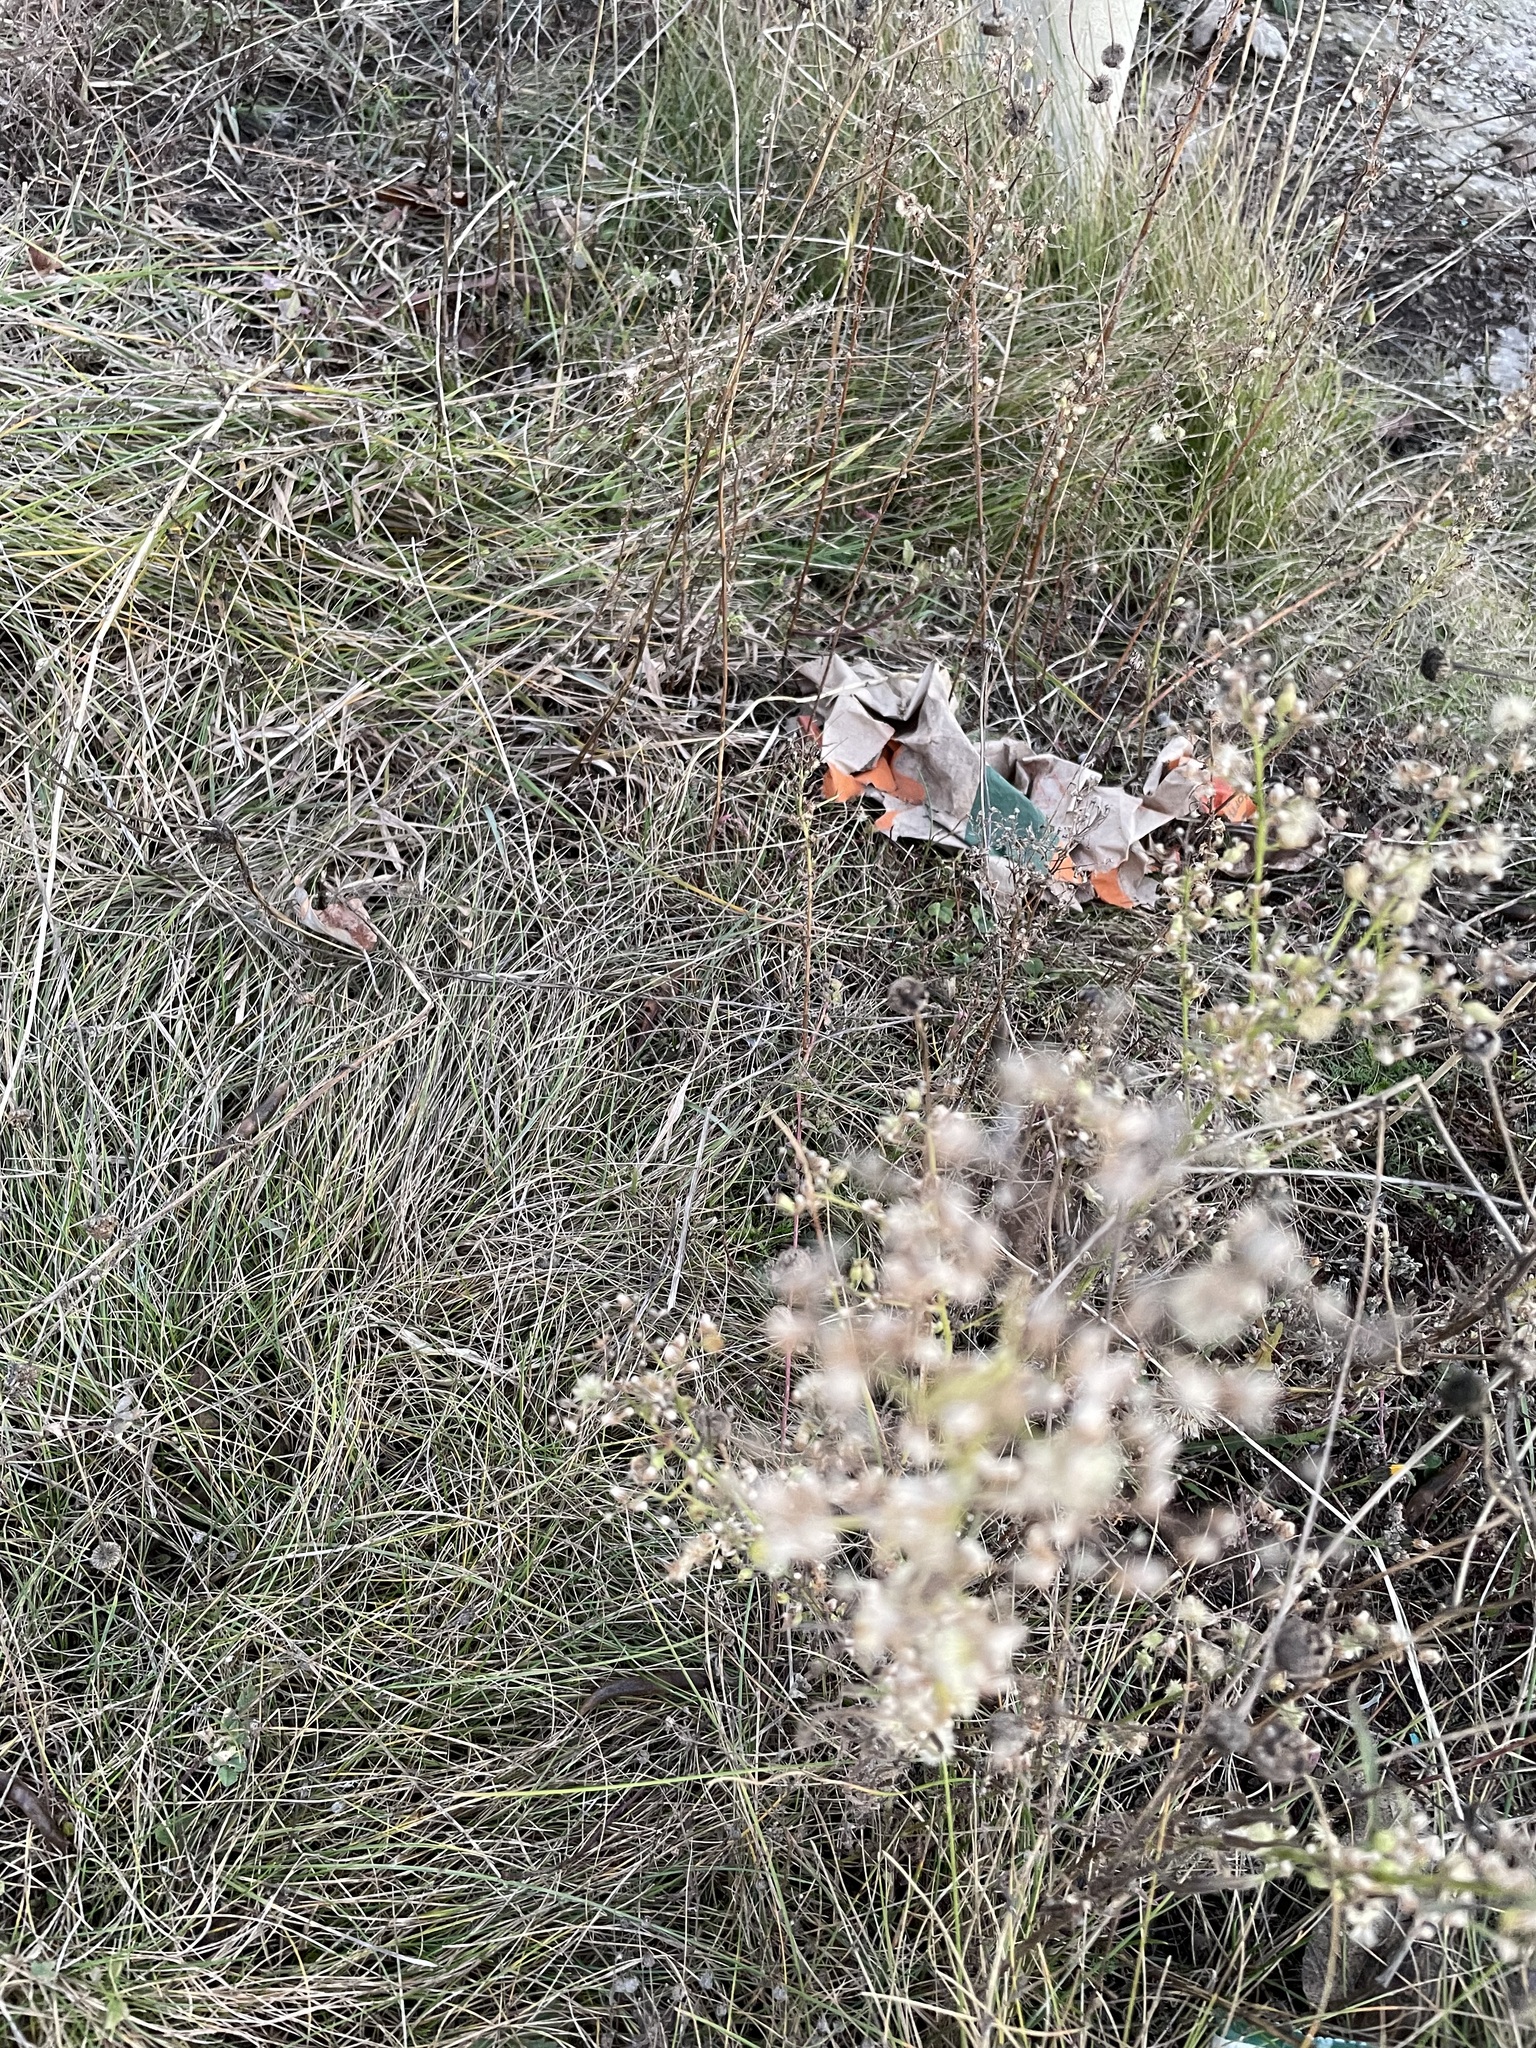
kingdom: Plantae
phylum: Tracheophyta
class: Magnoliopsida
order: Asterales
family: Asteraceae
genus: Erigeron
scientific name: Erigeron canadensis
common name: Canadian fleabane
